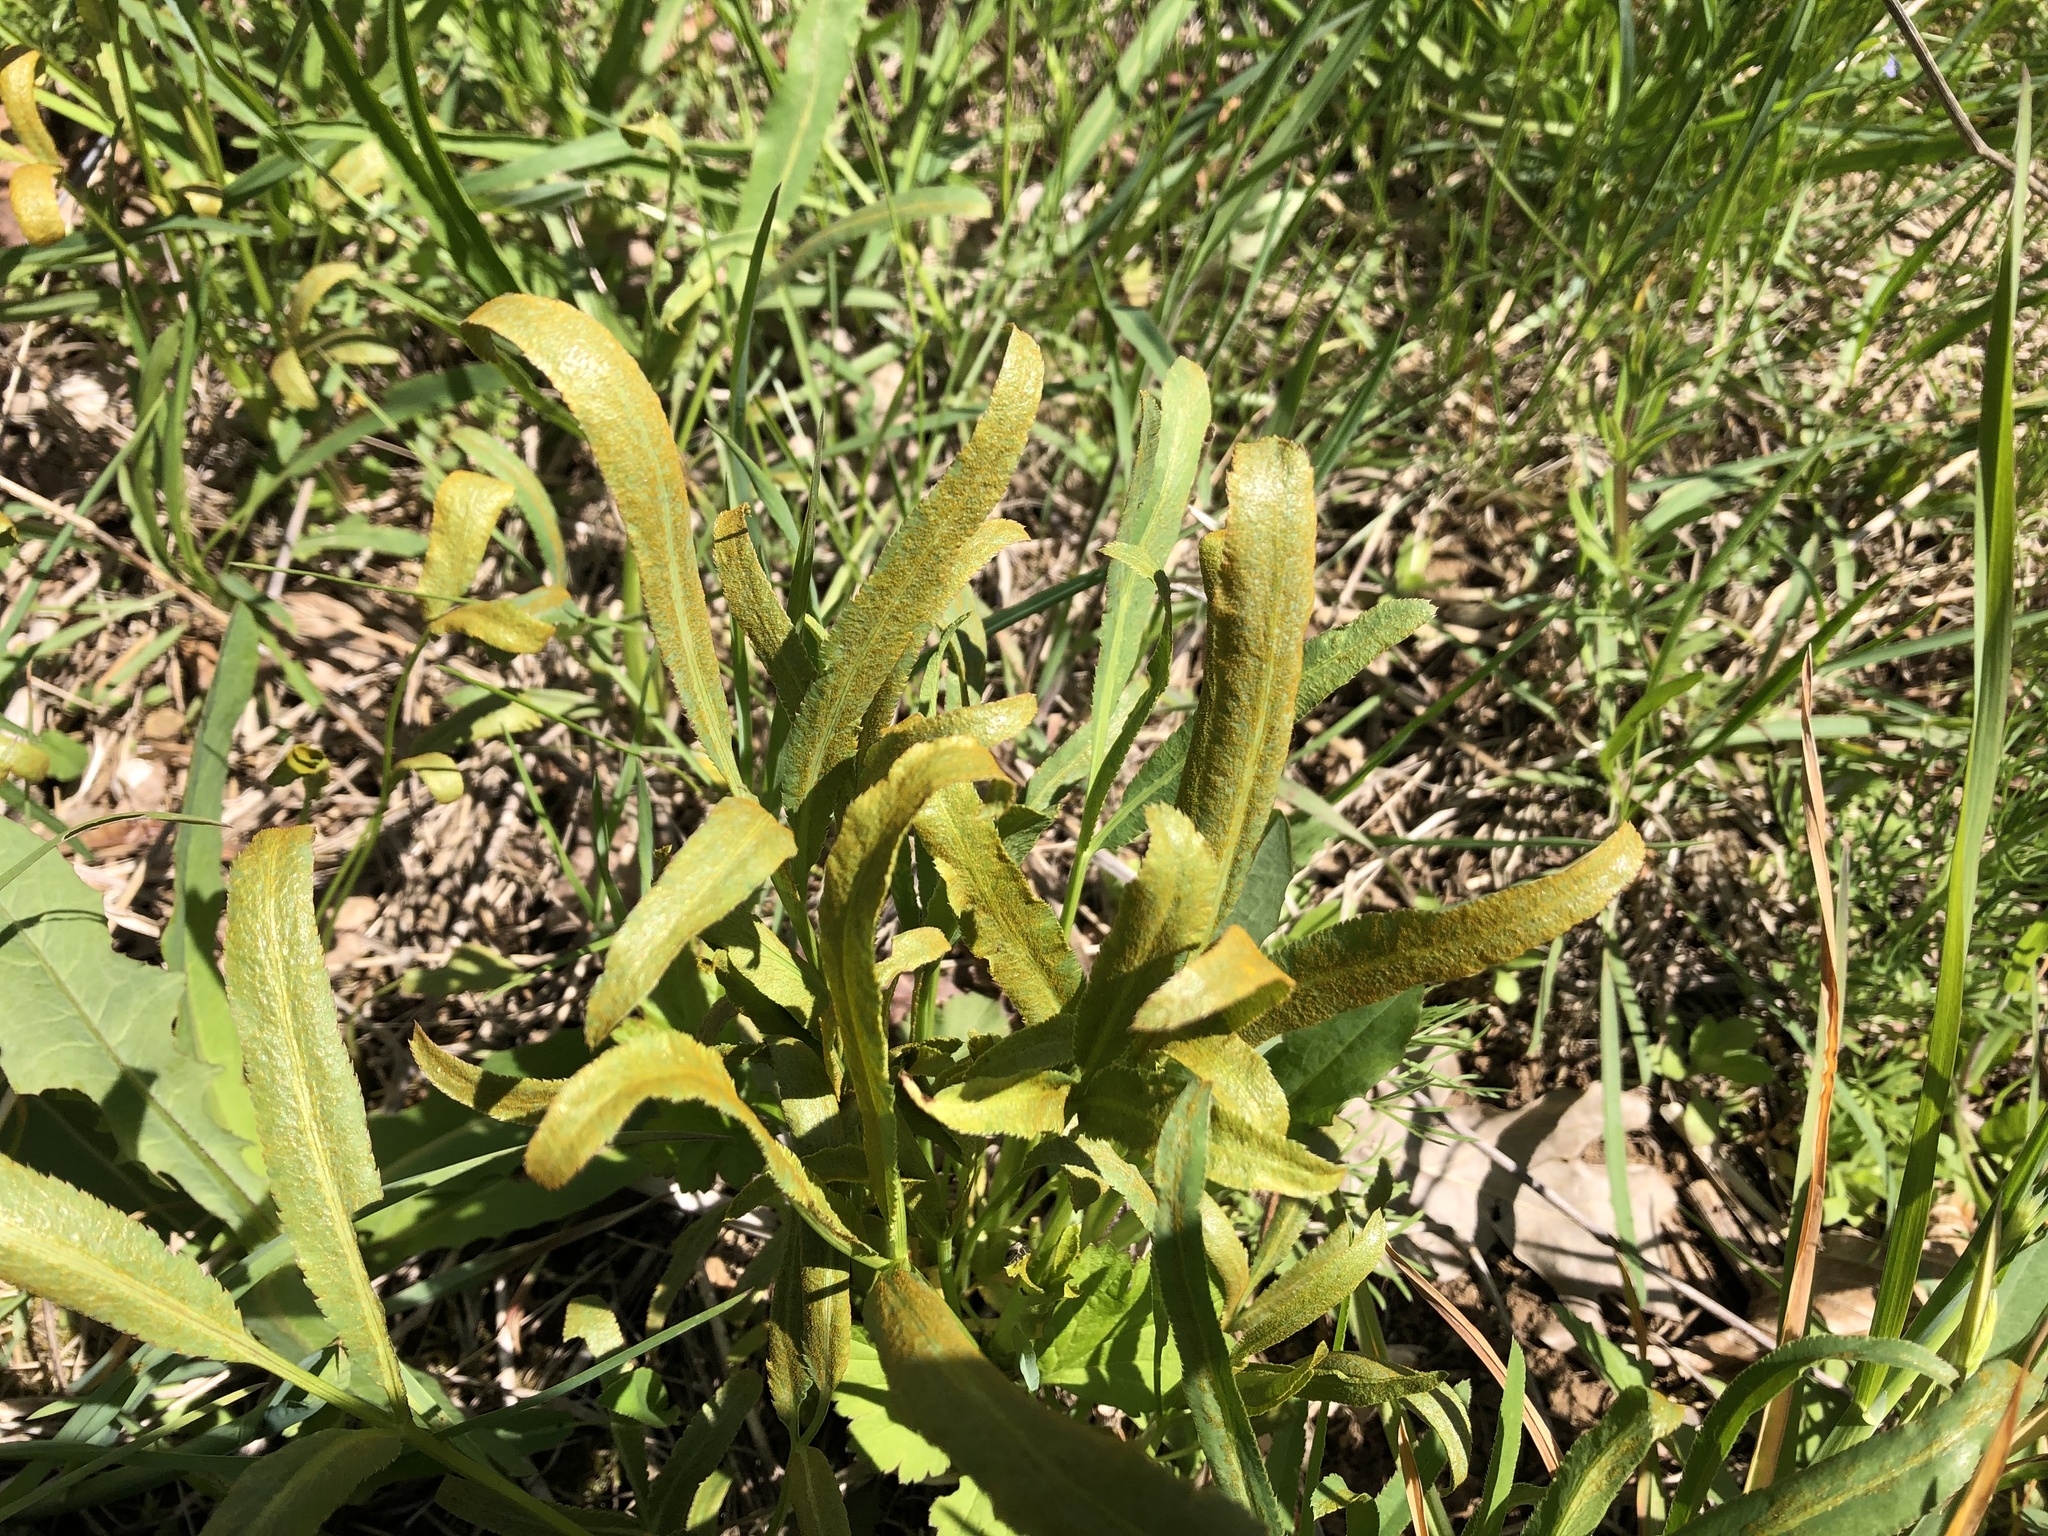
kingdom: Plantae
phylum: Tracheophyta
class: Magnoliopsida
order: Apiales
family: Apiaceae
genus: Falcaria
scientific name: Falcaria vulgaris
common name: Longleaf
